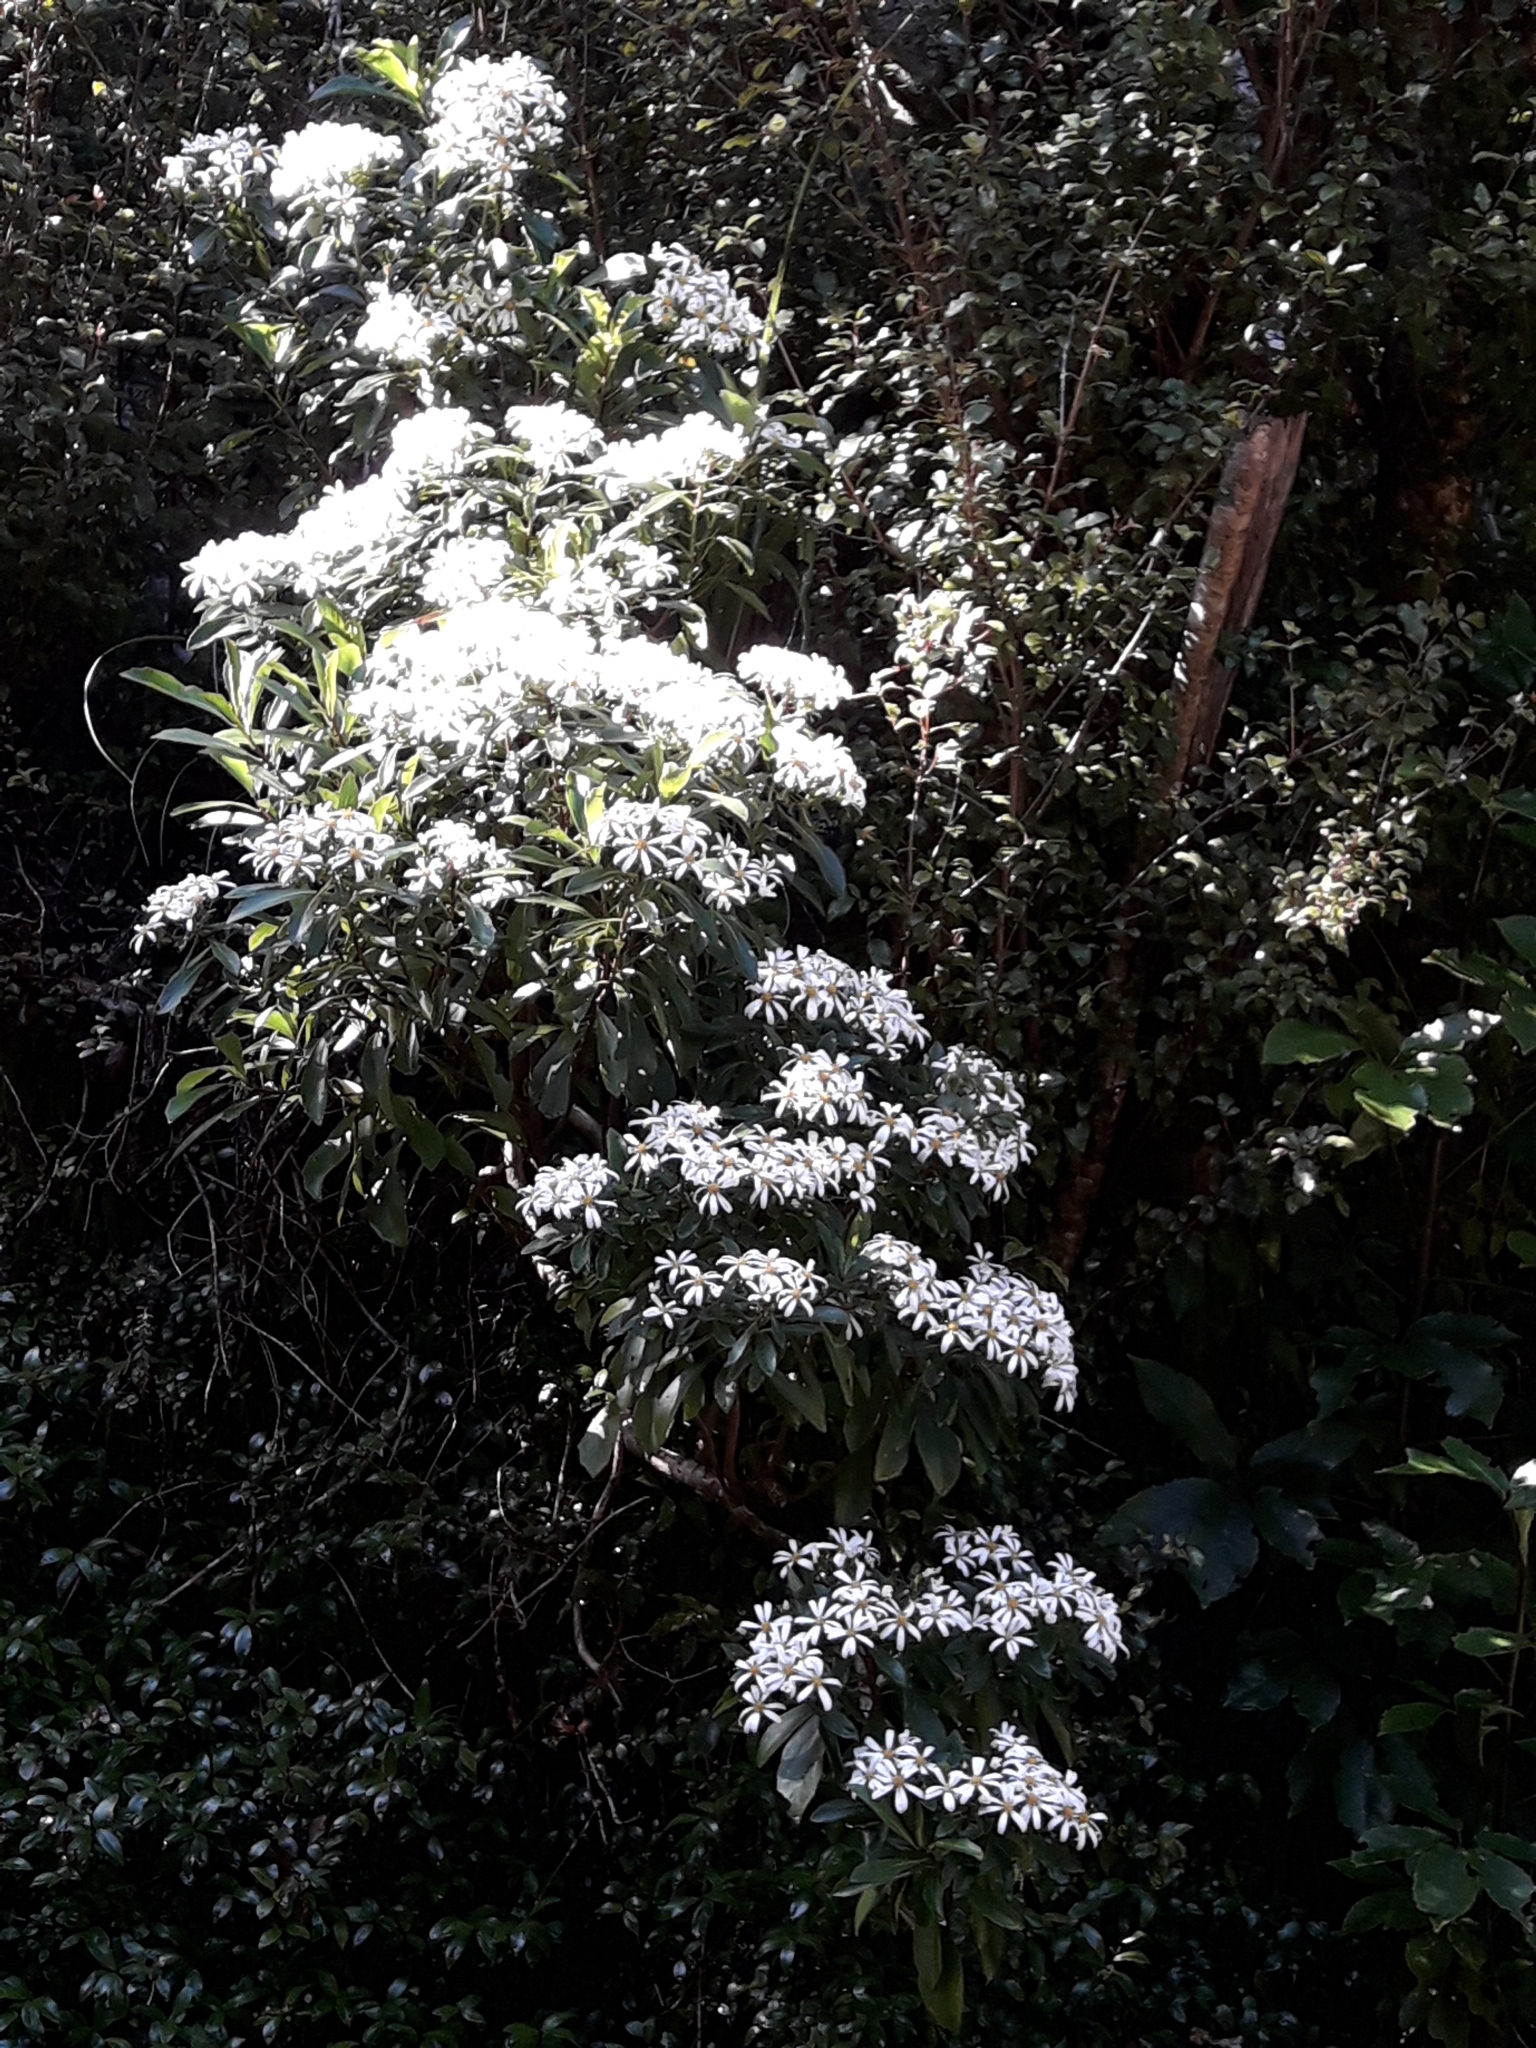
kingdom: Plantae
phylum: Tracheophyta
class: Magnoliopsida
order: Asterales
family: Asteraceae
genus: Brachyglottis
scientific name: Brachyglottis kirkii
